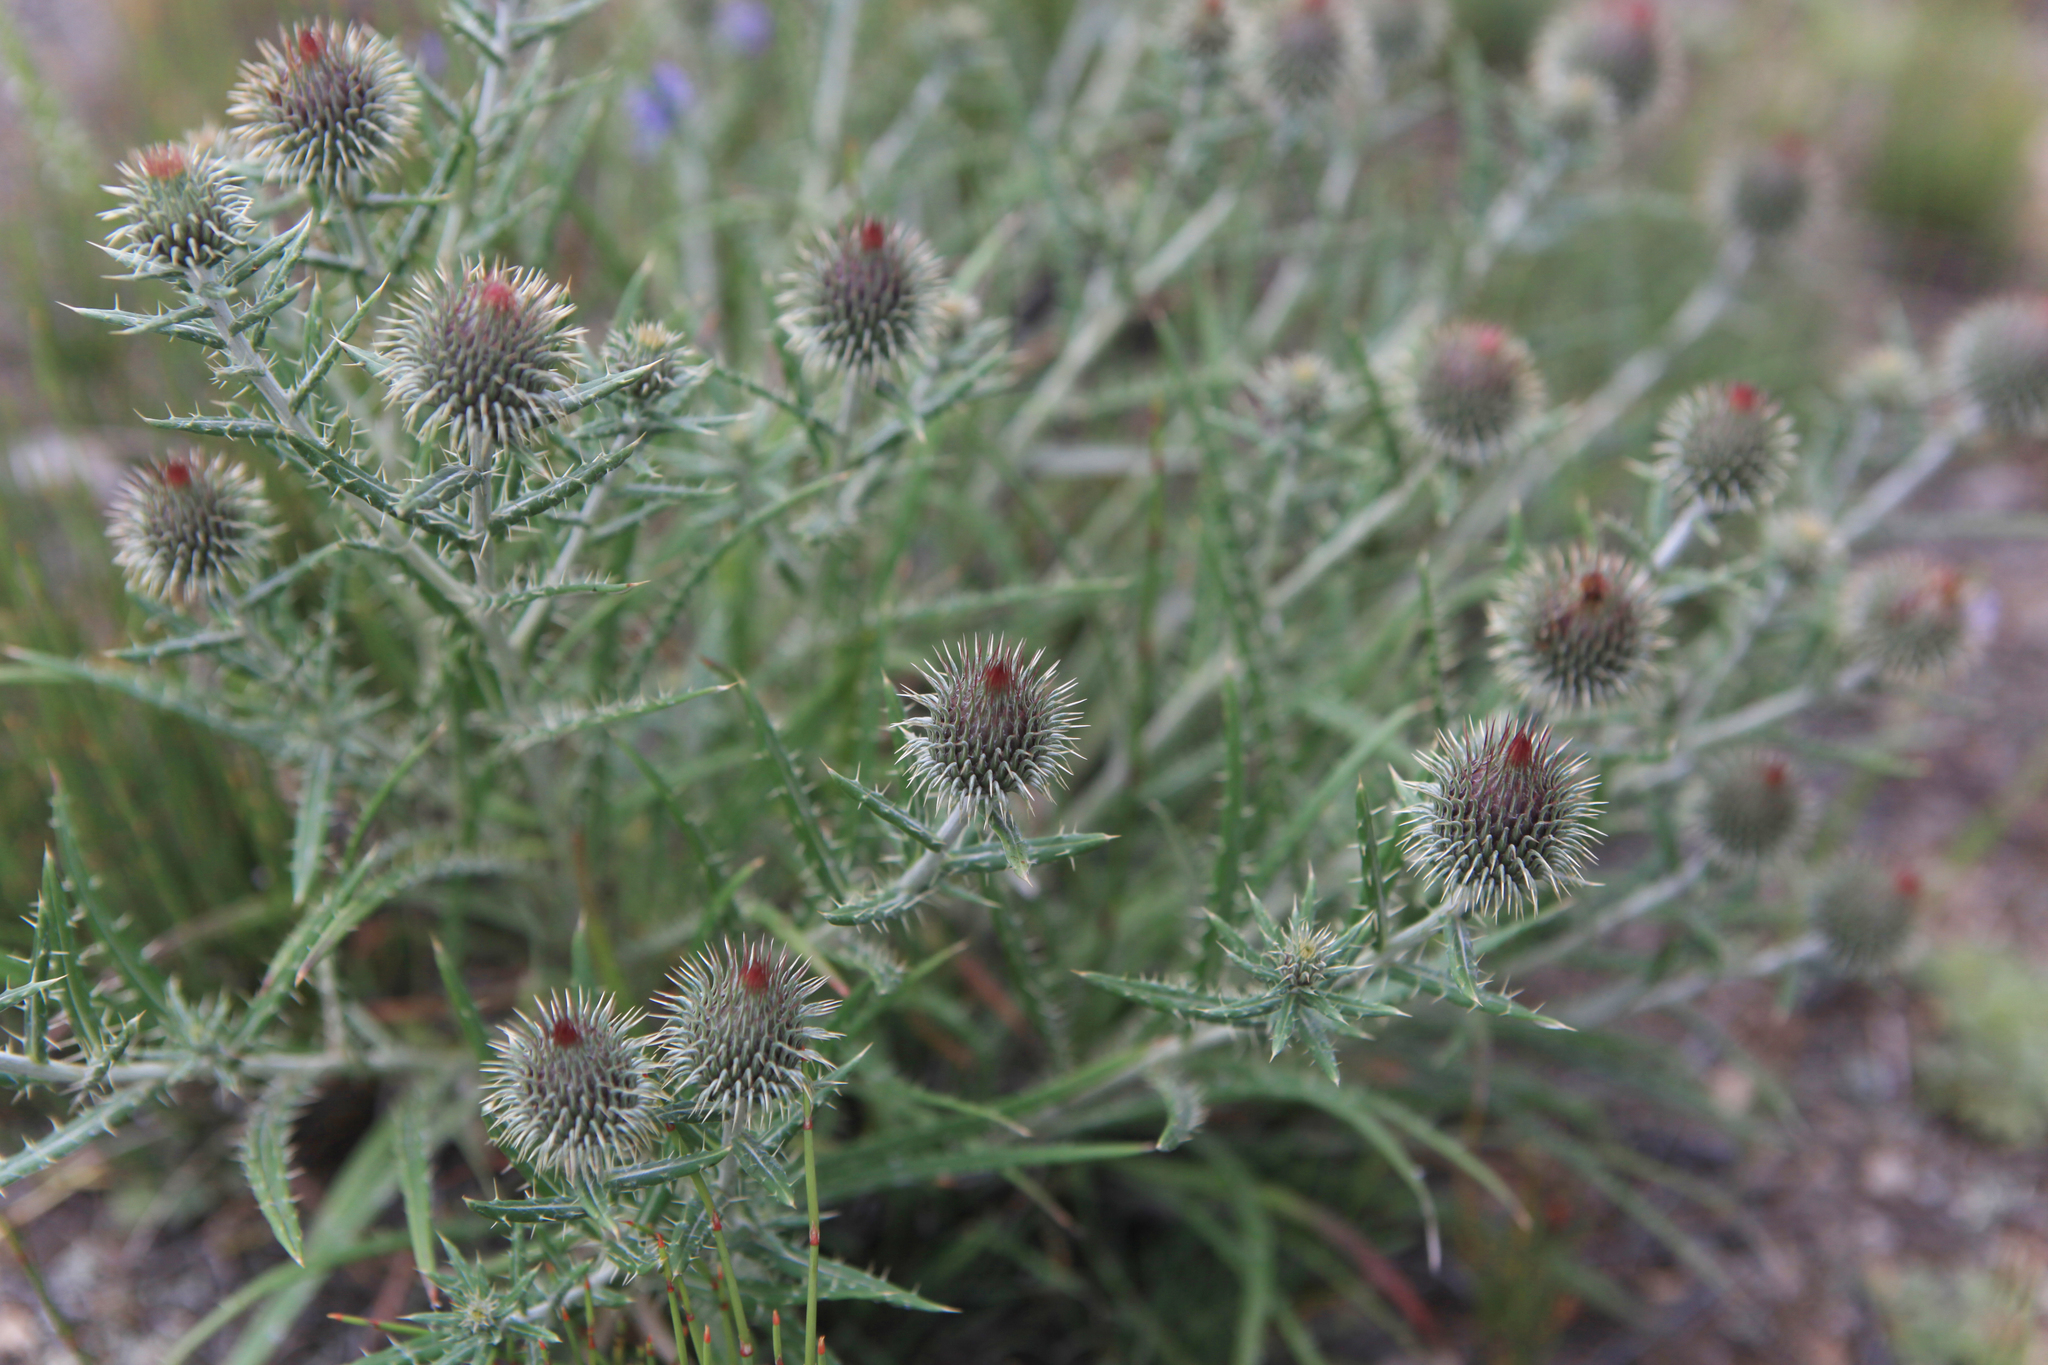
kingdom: Plantae
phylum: Tracheophyta
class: Magnoliopsida
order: Asterales
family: Asteraceae
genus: Ancathia
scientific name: Ancathia igniaria
